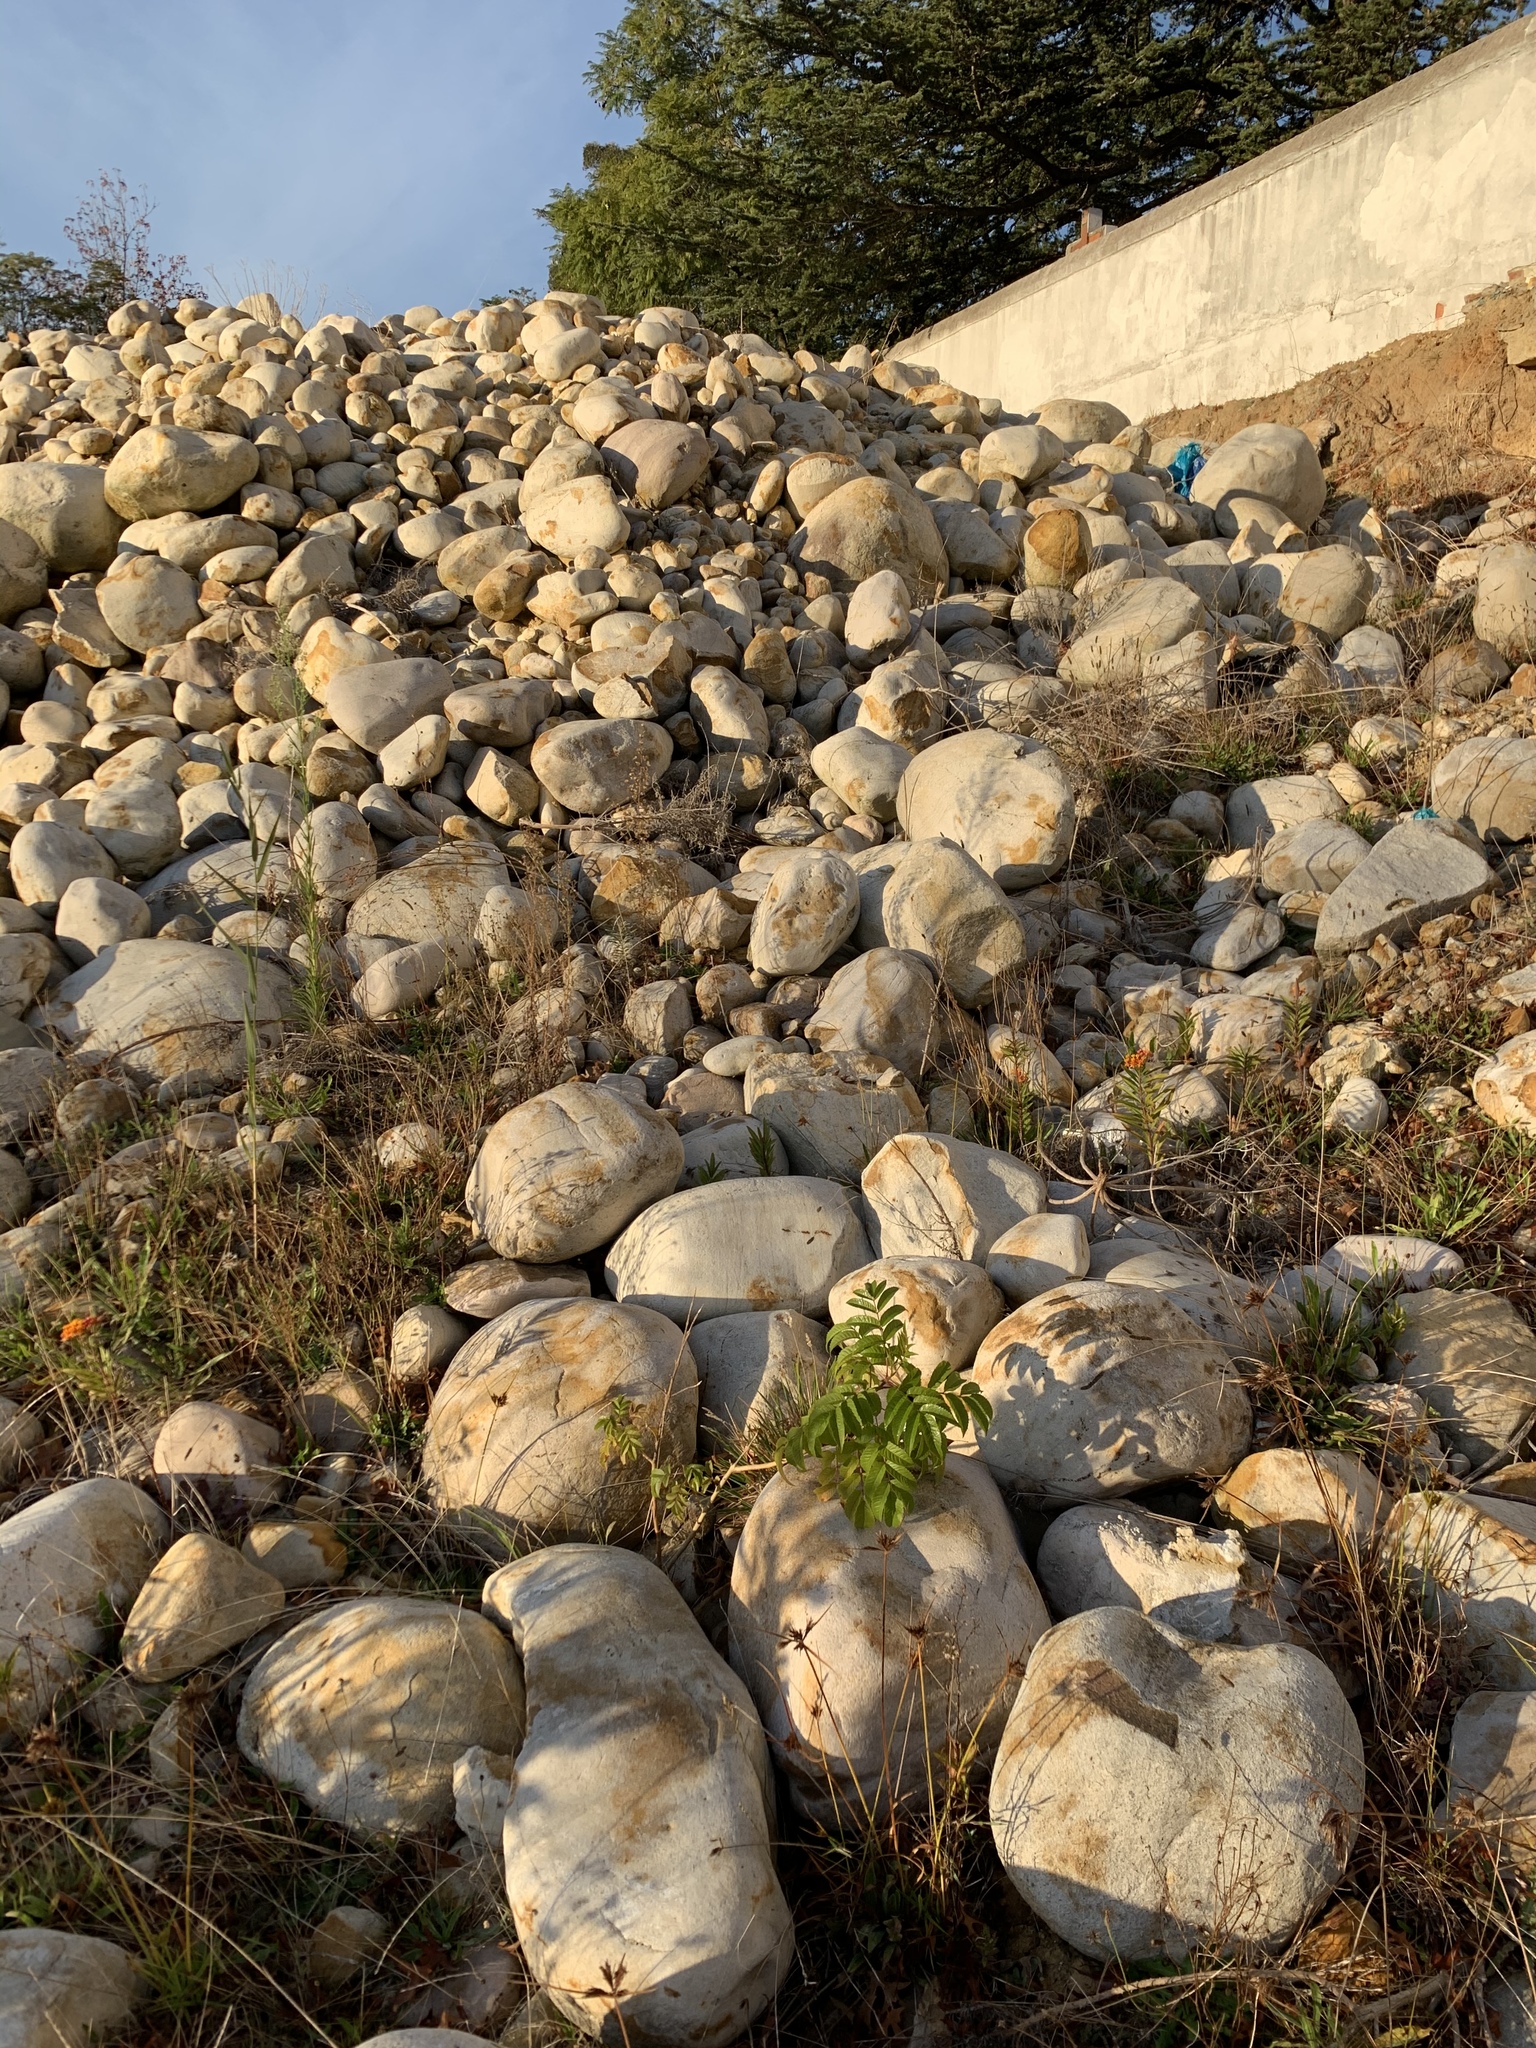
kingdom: Plantae
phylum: Tracheophyta
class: Magnoliopsida
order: Lamiales
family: Bignoniaceae
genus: Tecoma
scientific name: Tecoma stans
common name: Yellow trumpetbush
